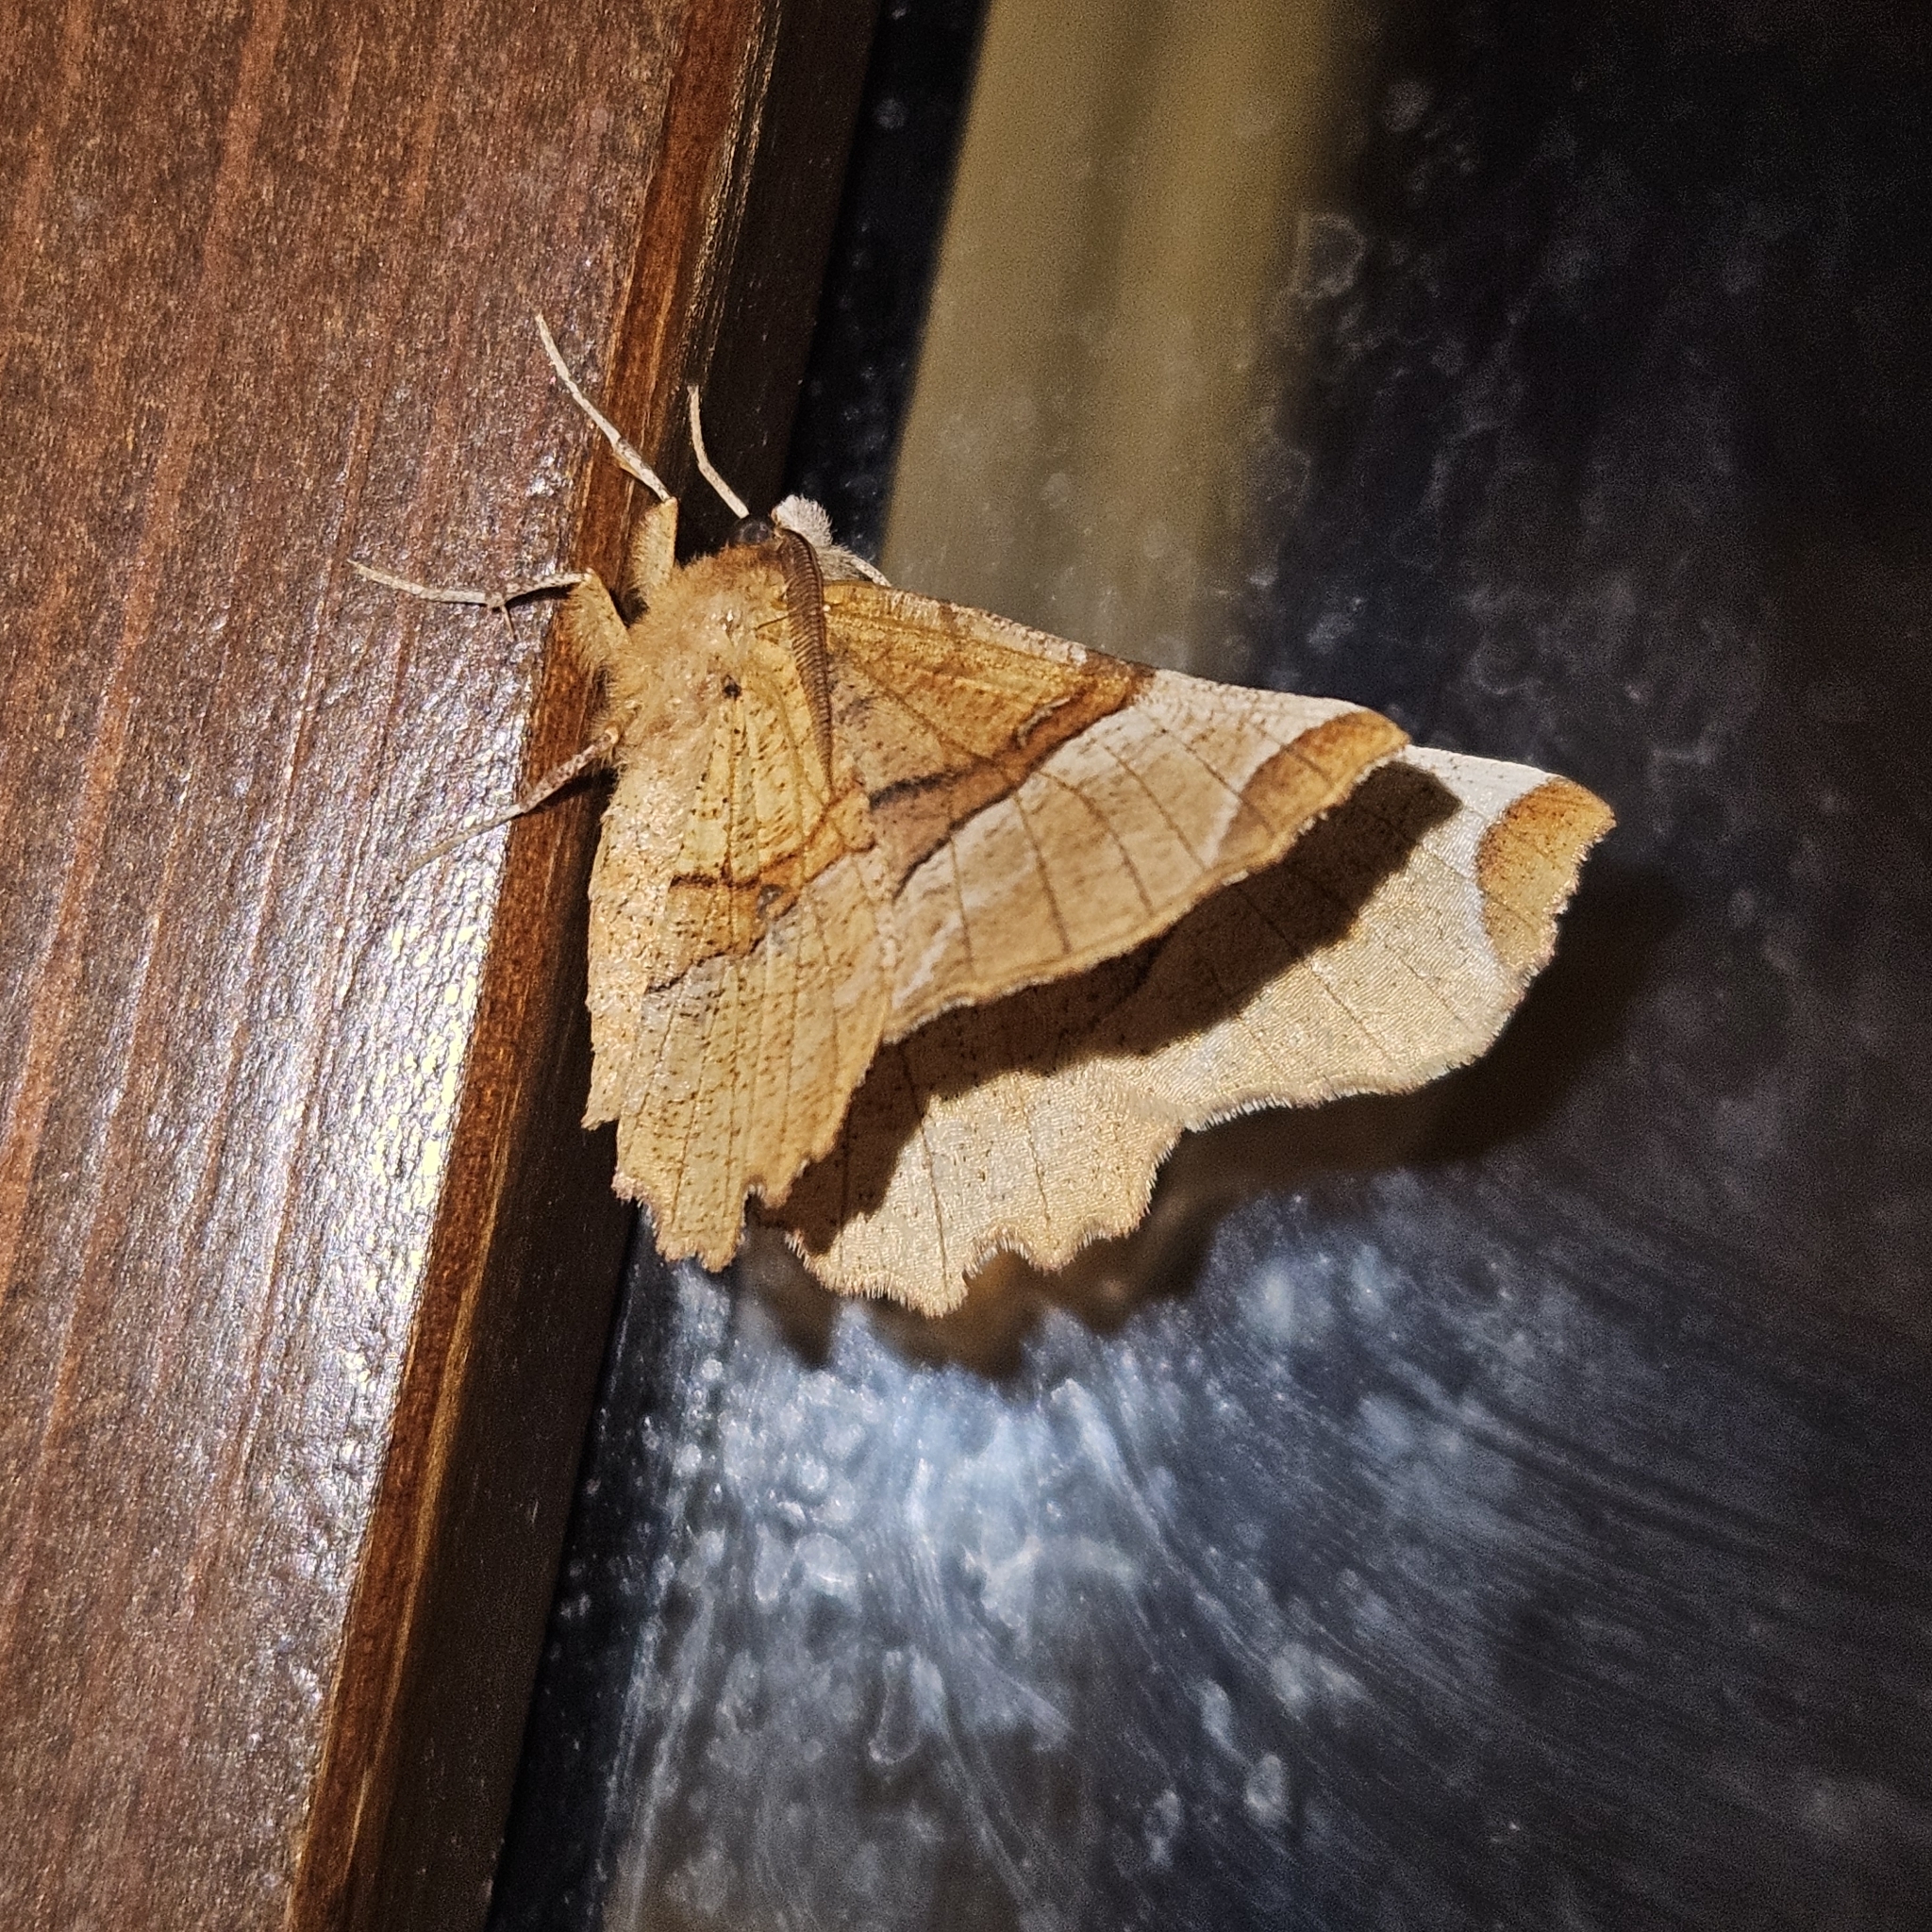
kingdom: Animalia
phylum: Arthropoda
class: Insecta
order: Lepidoptera
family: Geometridae
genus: Selenia
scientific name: Selenia lunularia
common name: Lunar thorn
